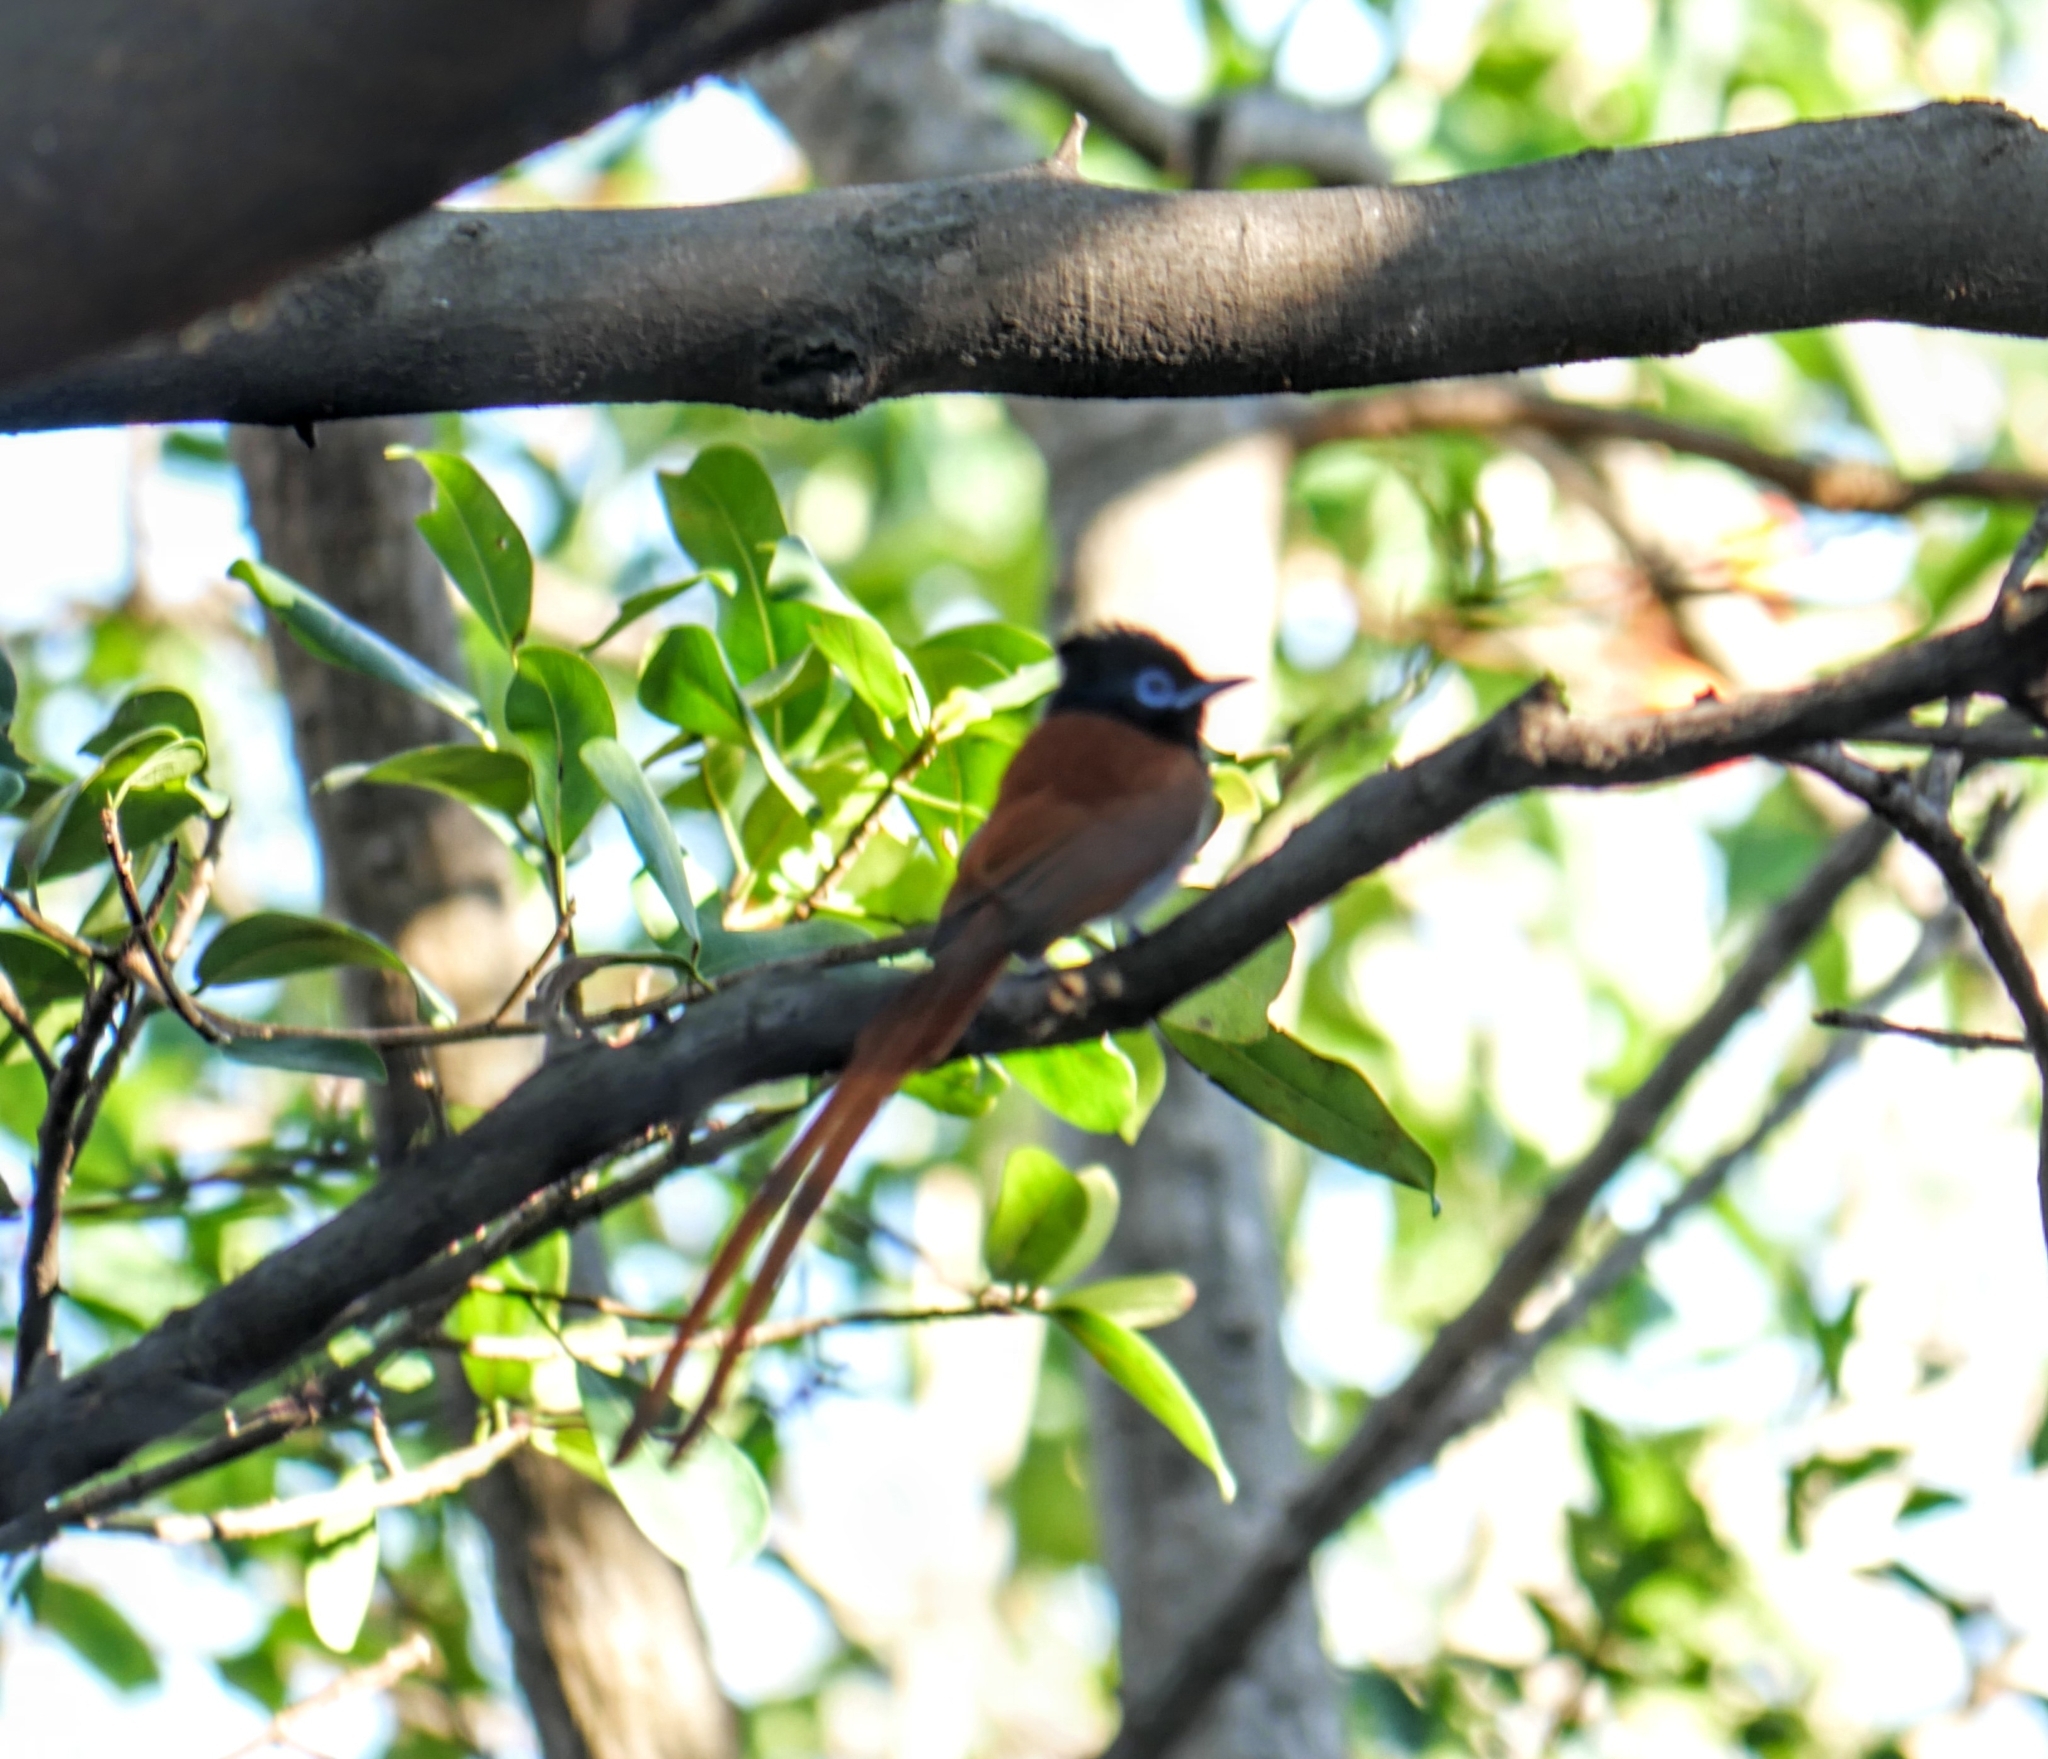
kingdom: Animalia
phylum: Chordata
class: Aves
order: Passeriformes
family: Monarchidae
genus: Terpsiphone
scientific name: Terpsiphone viridis
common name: African paradise flycatcher
